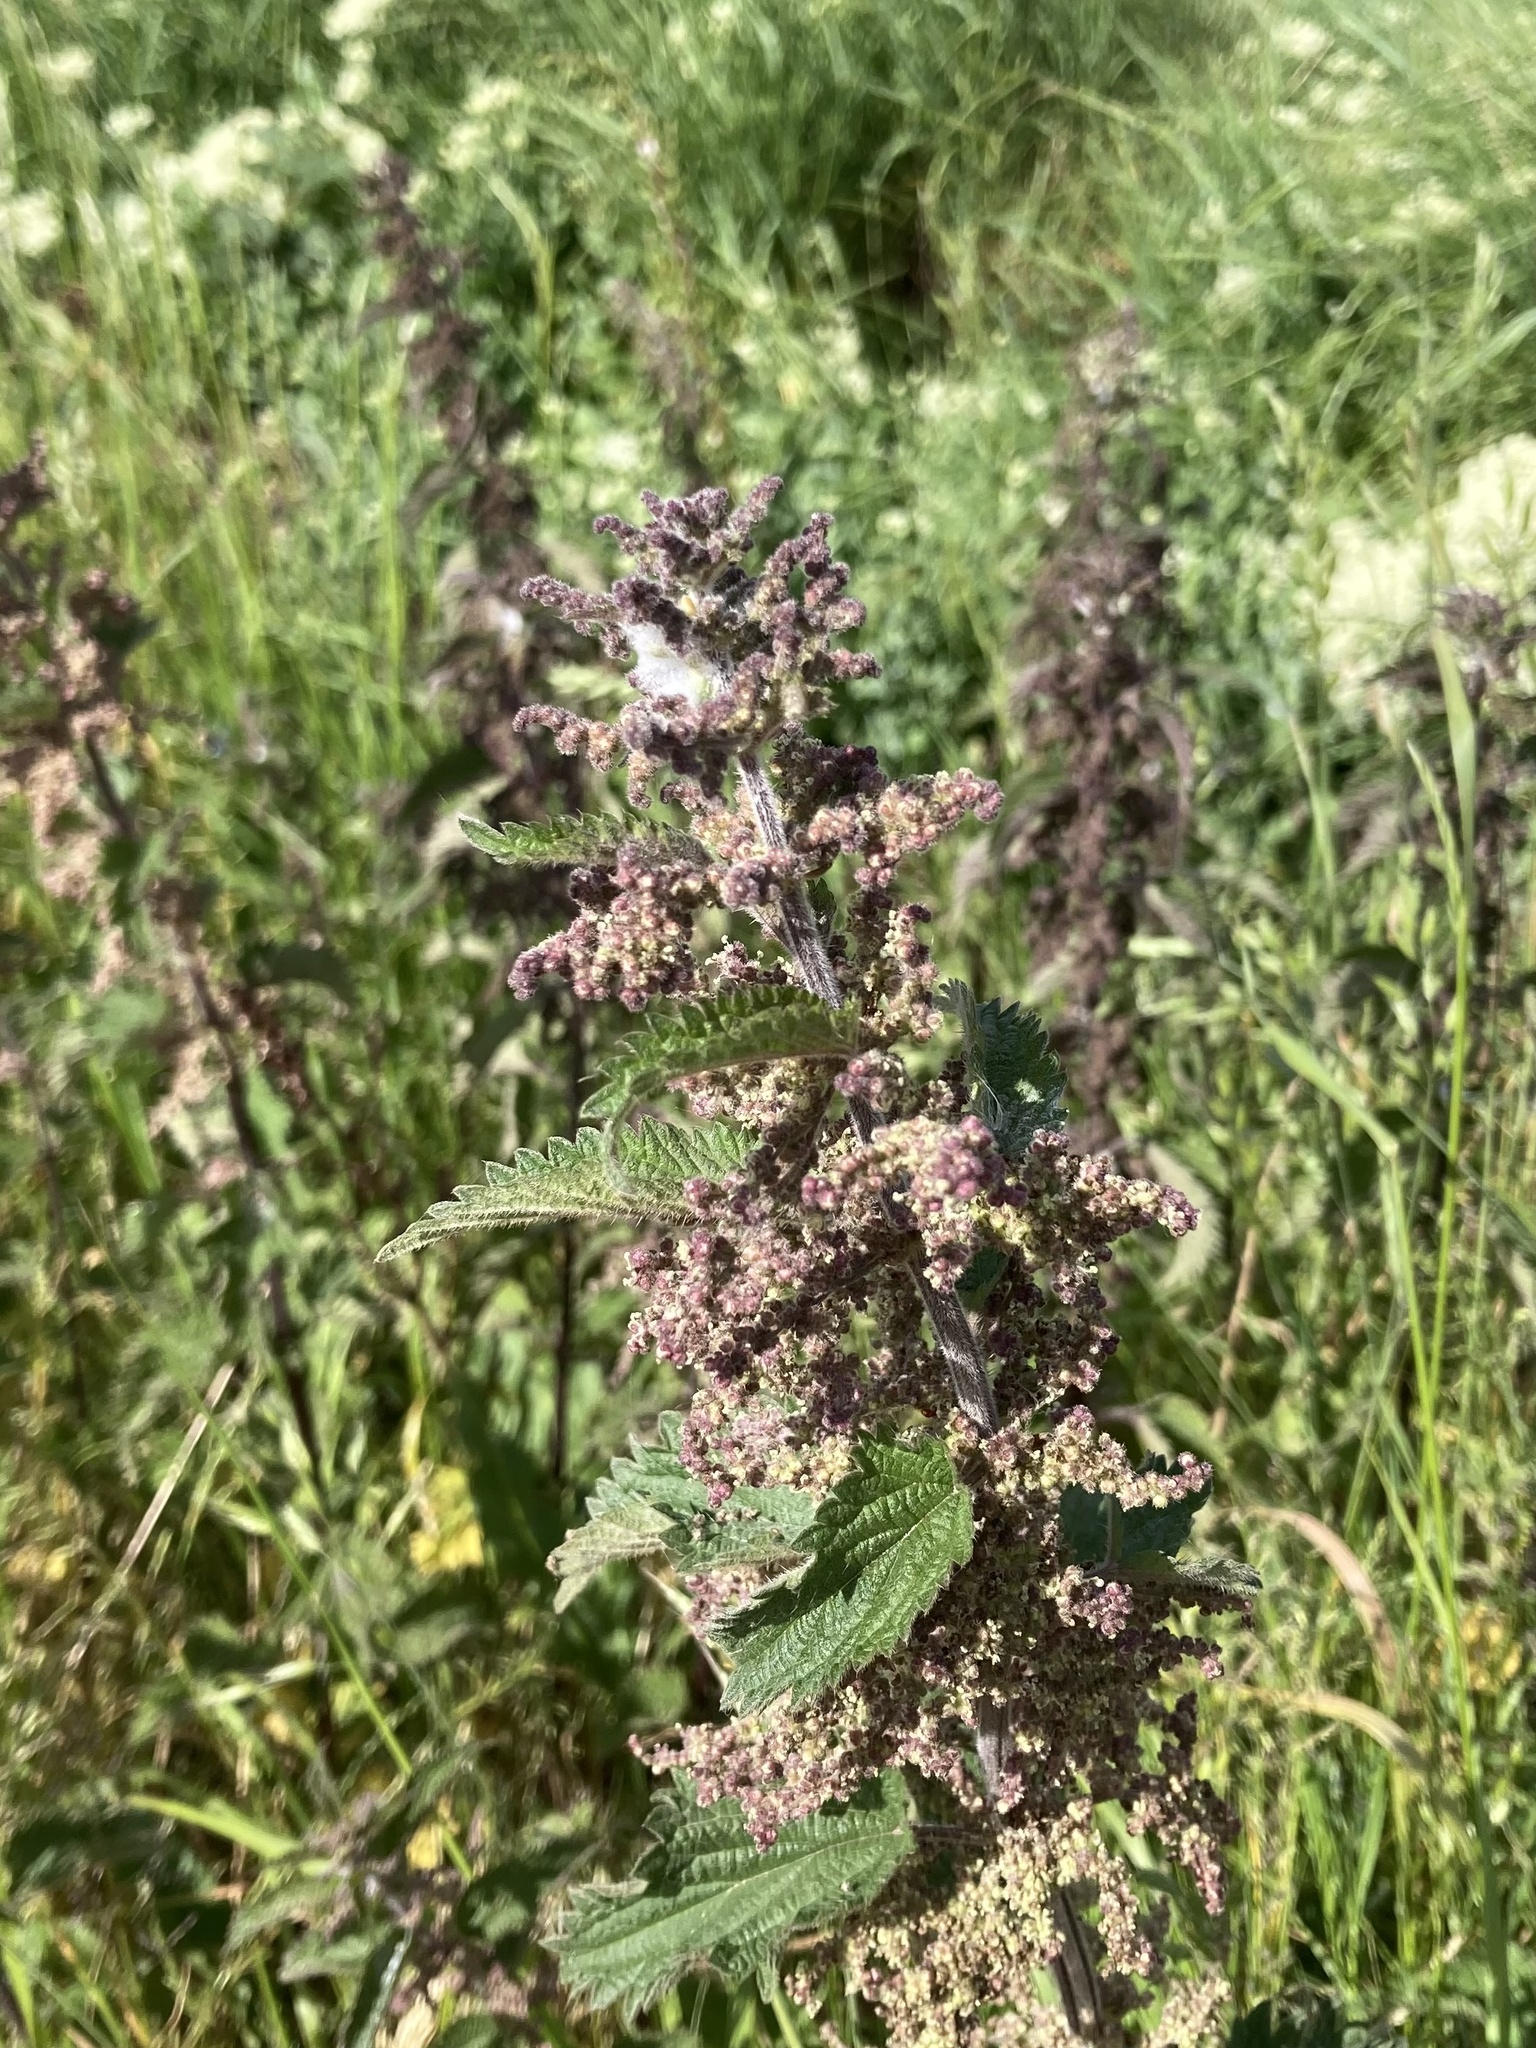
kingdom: Plantae
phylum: Tracheophyta
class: Magnoliopsida
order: Rosales
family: Urticaceae
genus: Urtica
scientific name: Urtica dioica
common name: Common nettle
